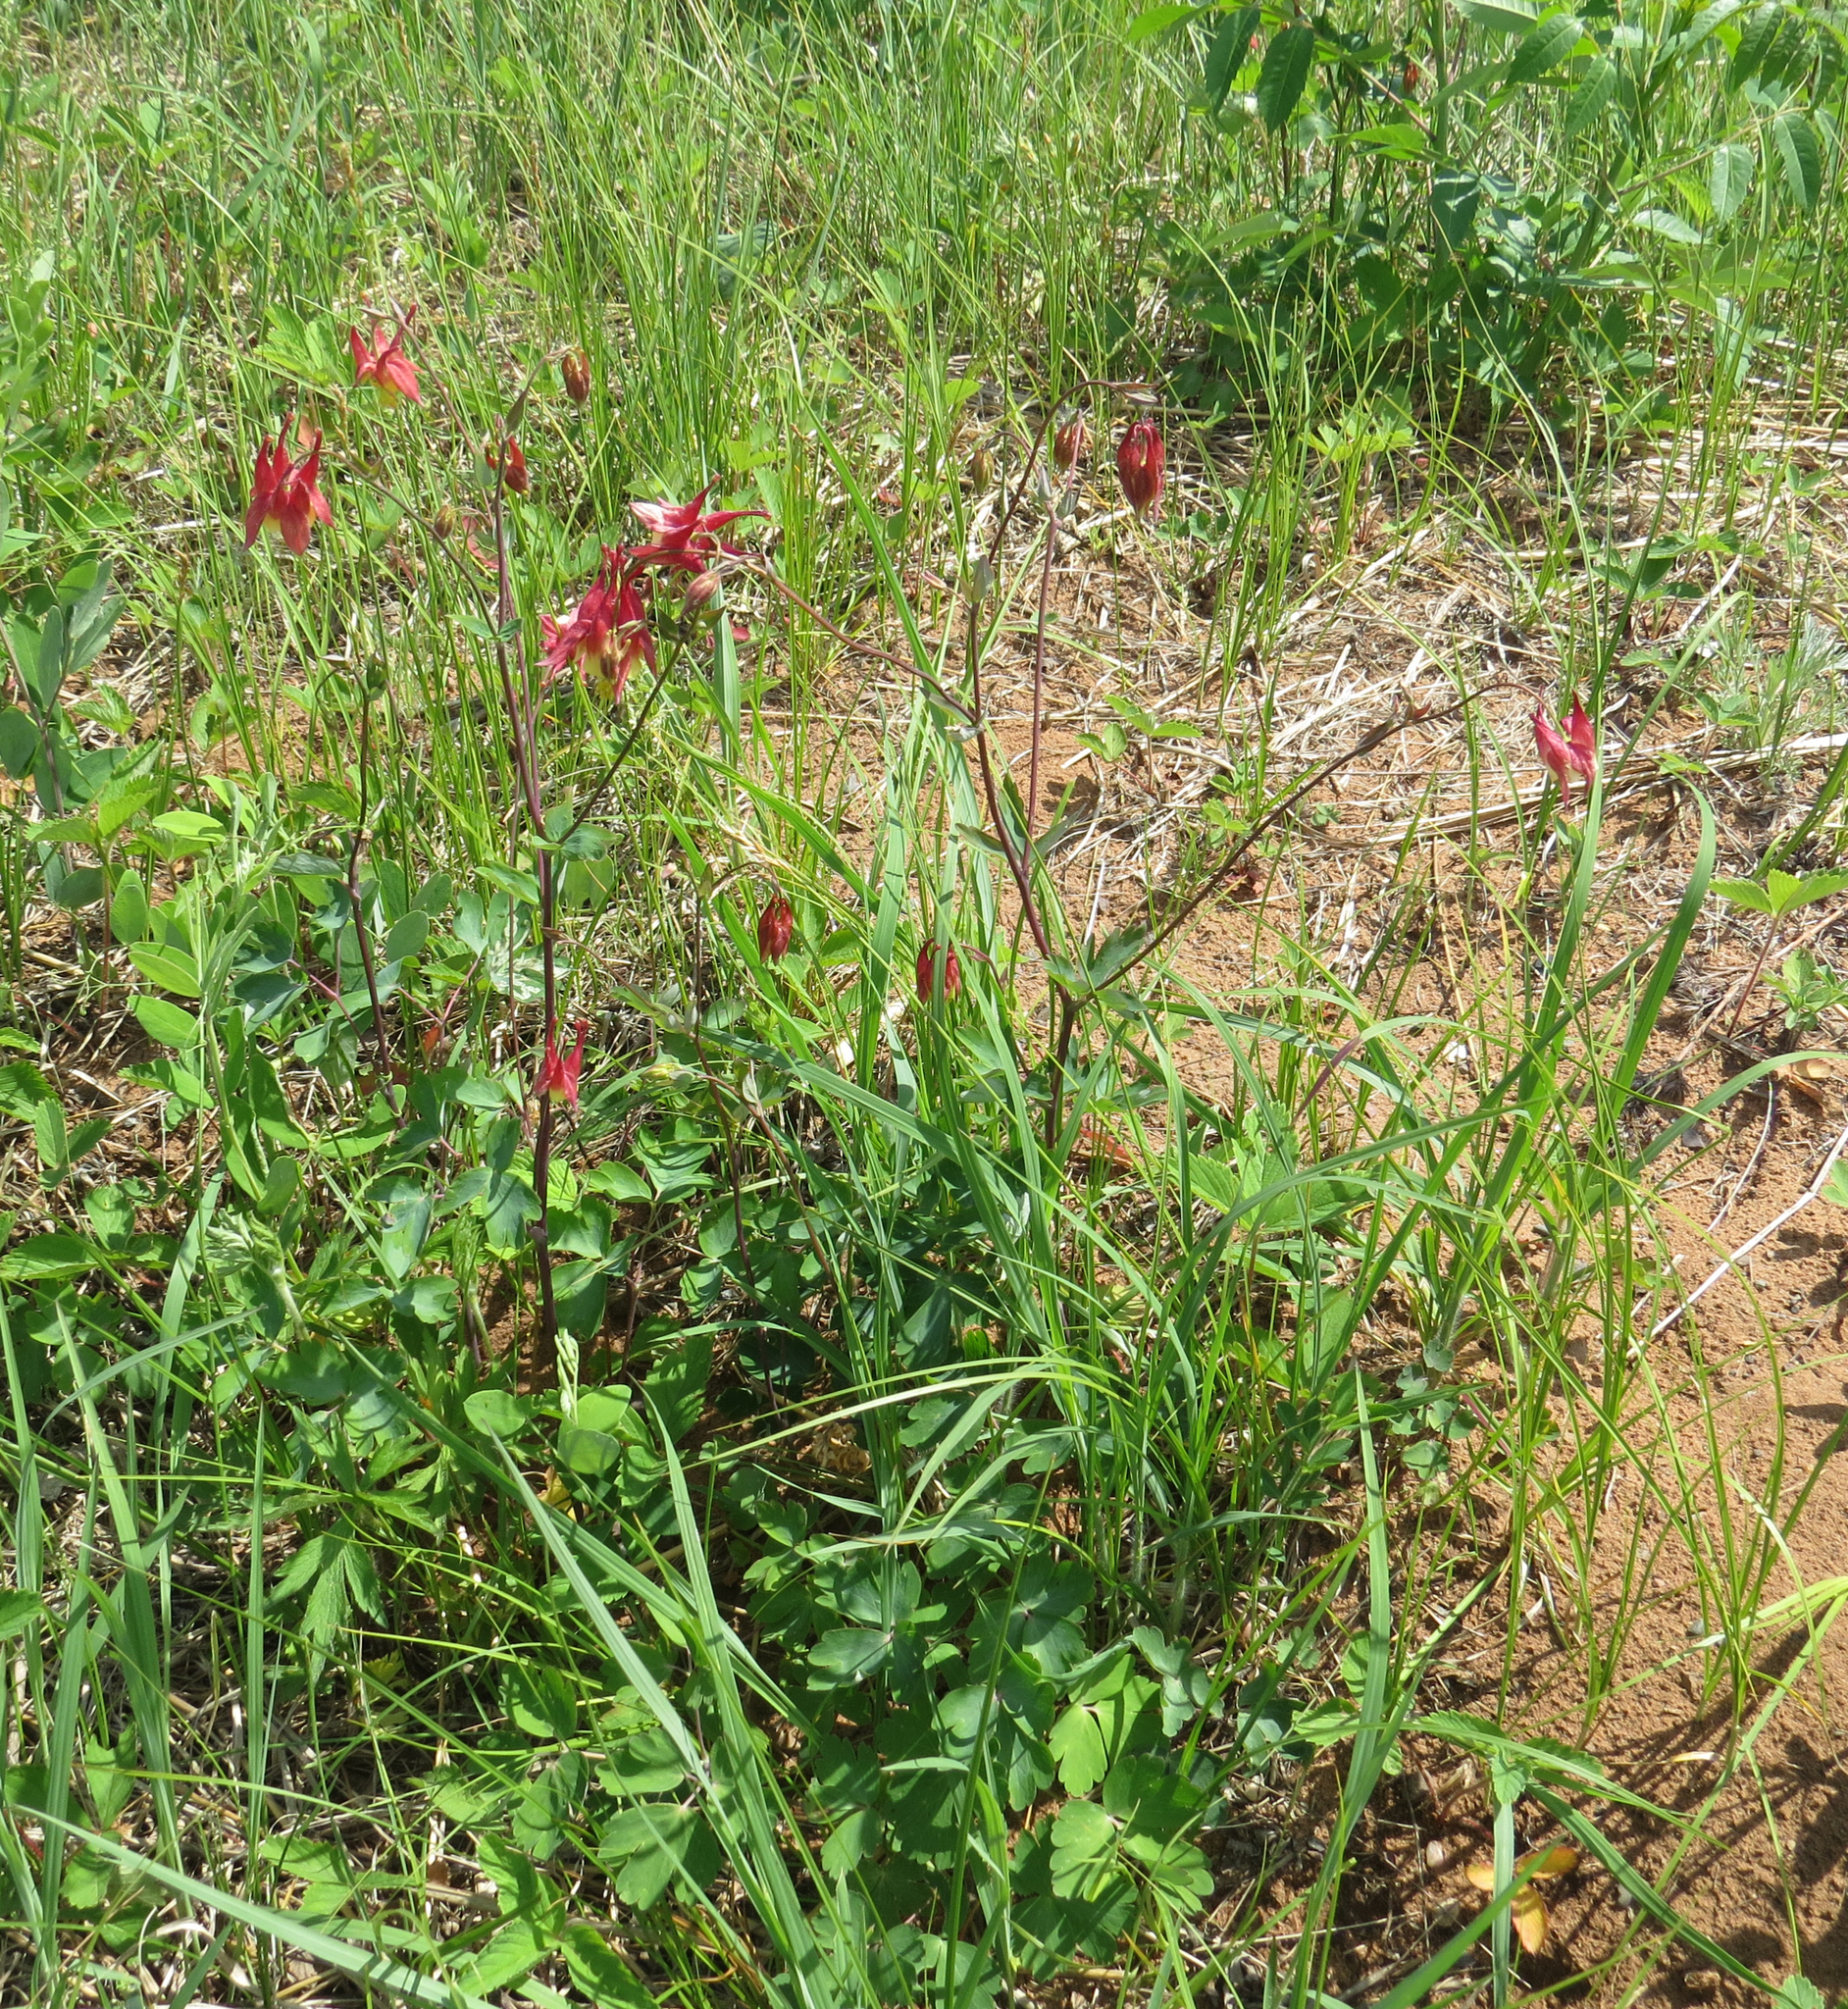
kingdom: Plantae
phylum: Tracheophyta
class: Magnoliopsida
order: Ranunculales
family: Ranunculaceae
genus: Aquilegia
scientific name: Aquilegia canadensis
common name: American columbine
